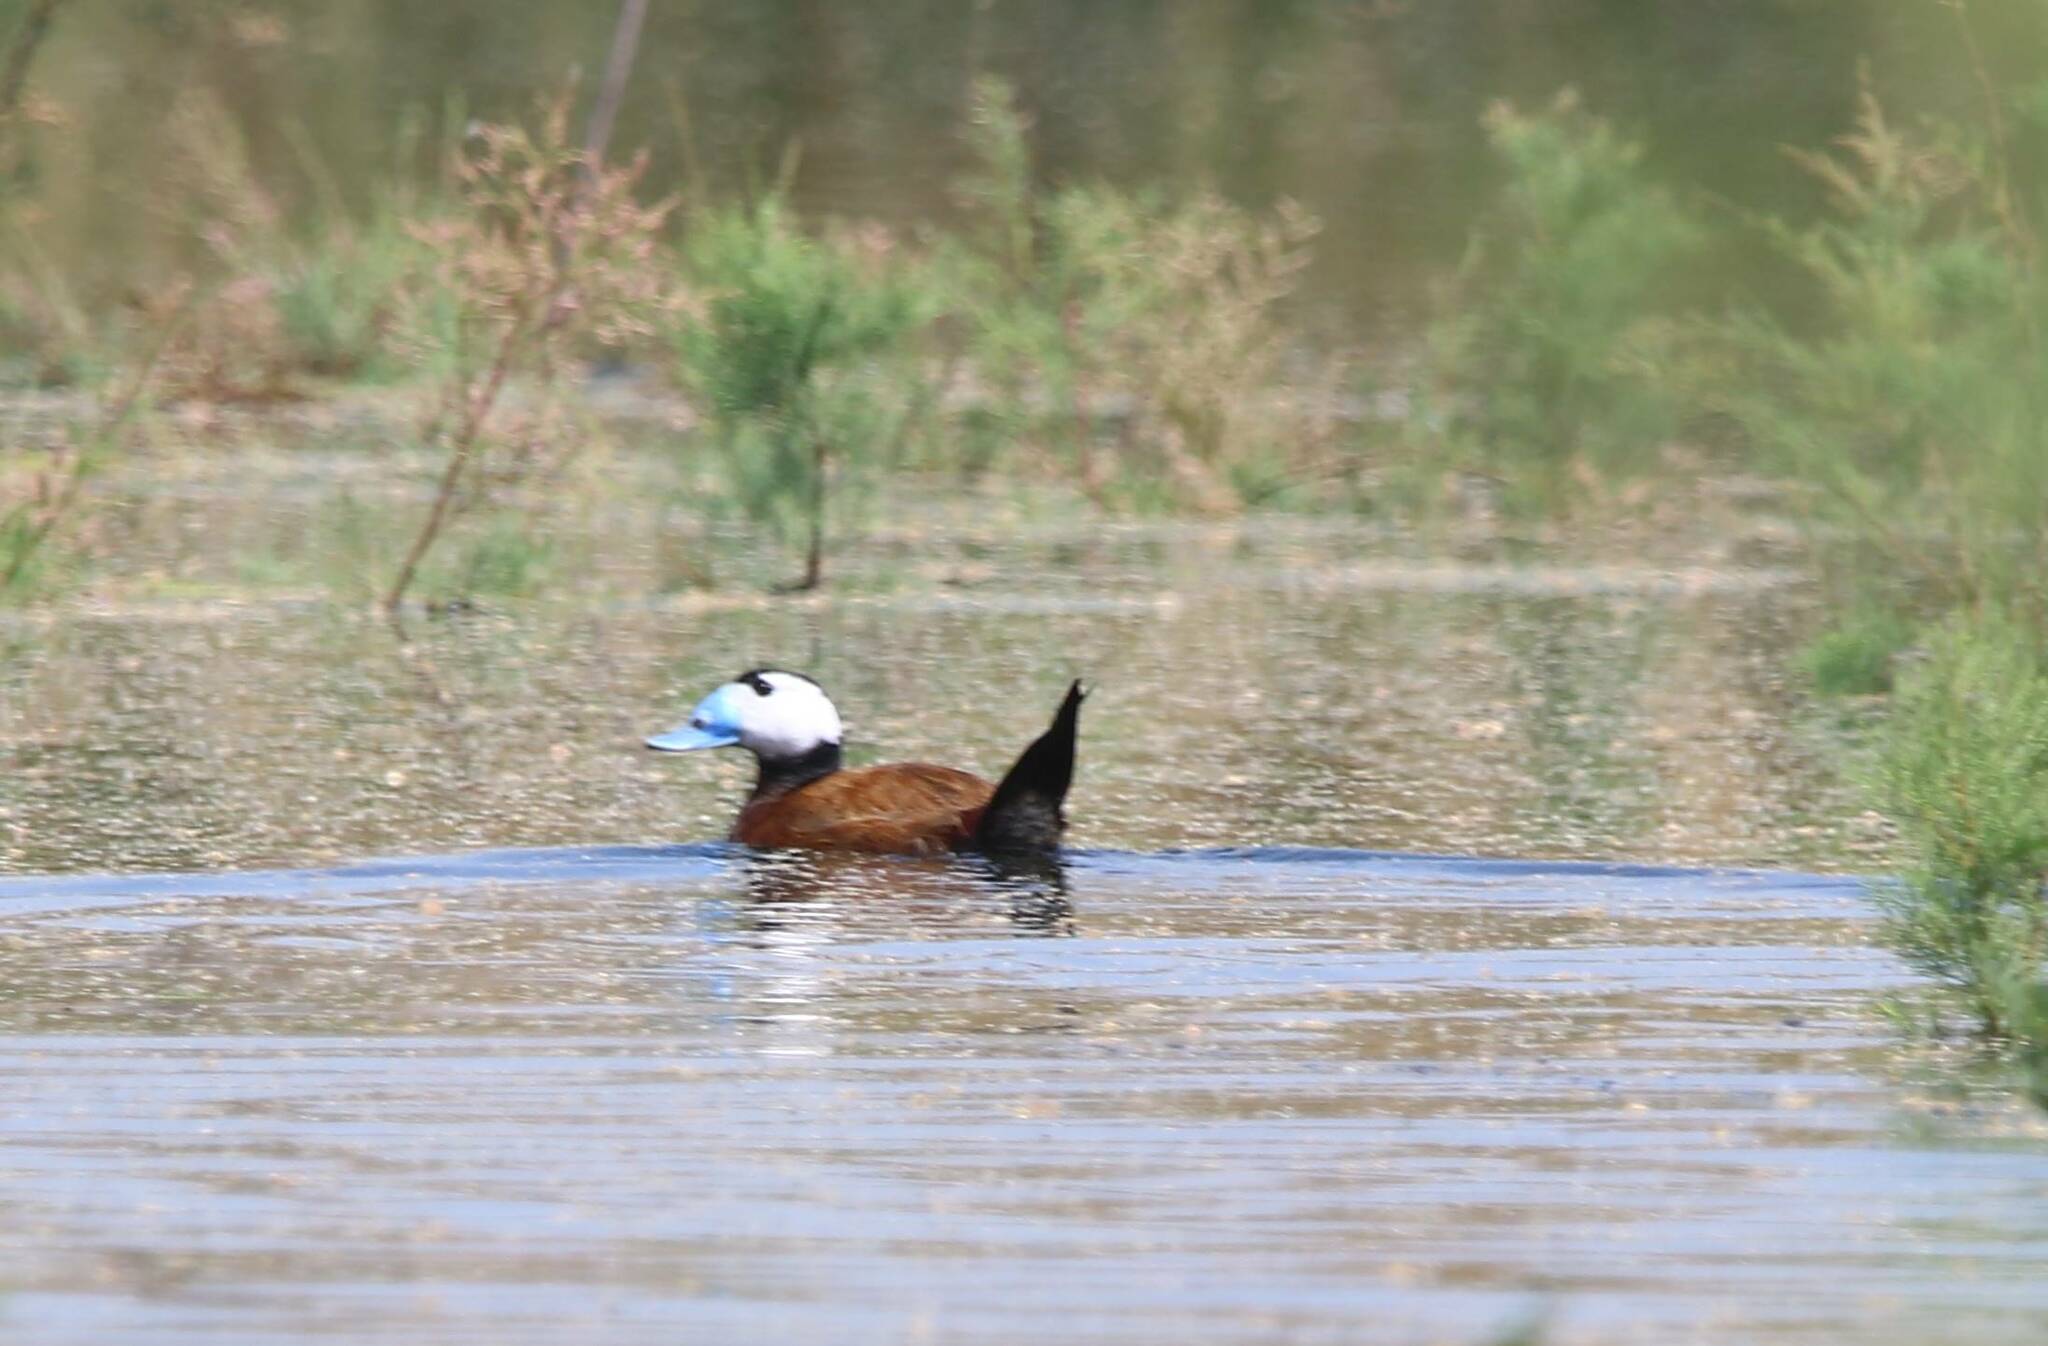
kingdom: Animalia
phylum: Chordata
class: Aves
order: Anseriformes
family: Anatidae
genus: Oxyura
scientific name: Oxyura leucocephala
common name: White-headed duck
